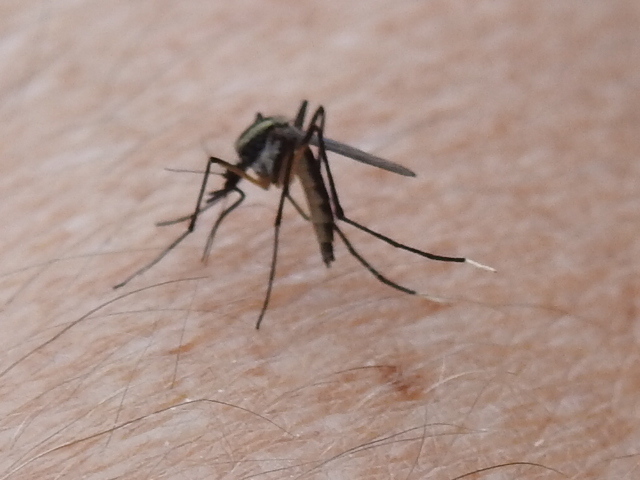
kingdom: Animalia
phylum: Arthropoda
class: Insecta
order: Diptera
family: Culicidae
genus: Psorophora
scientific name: Psorophora longipalpus
